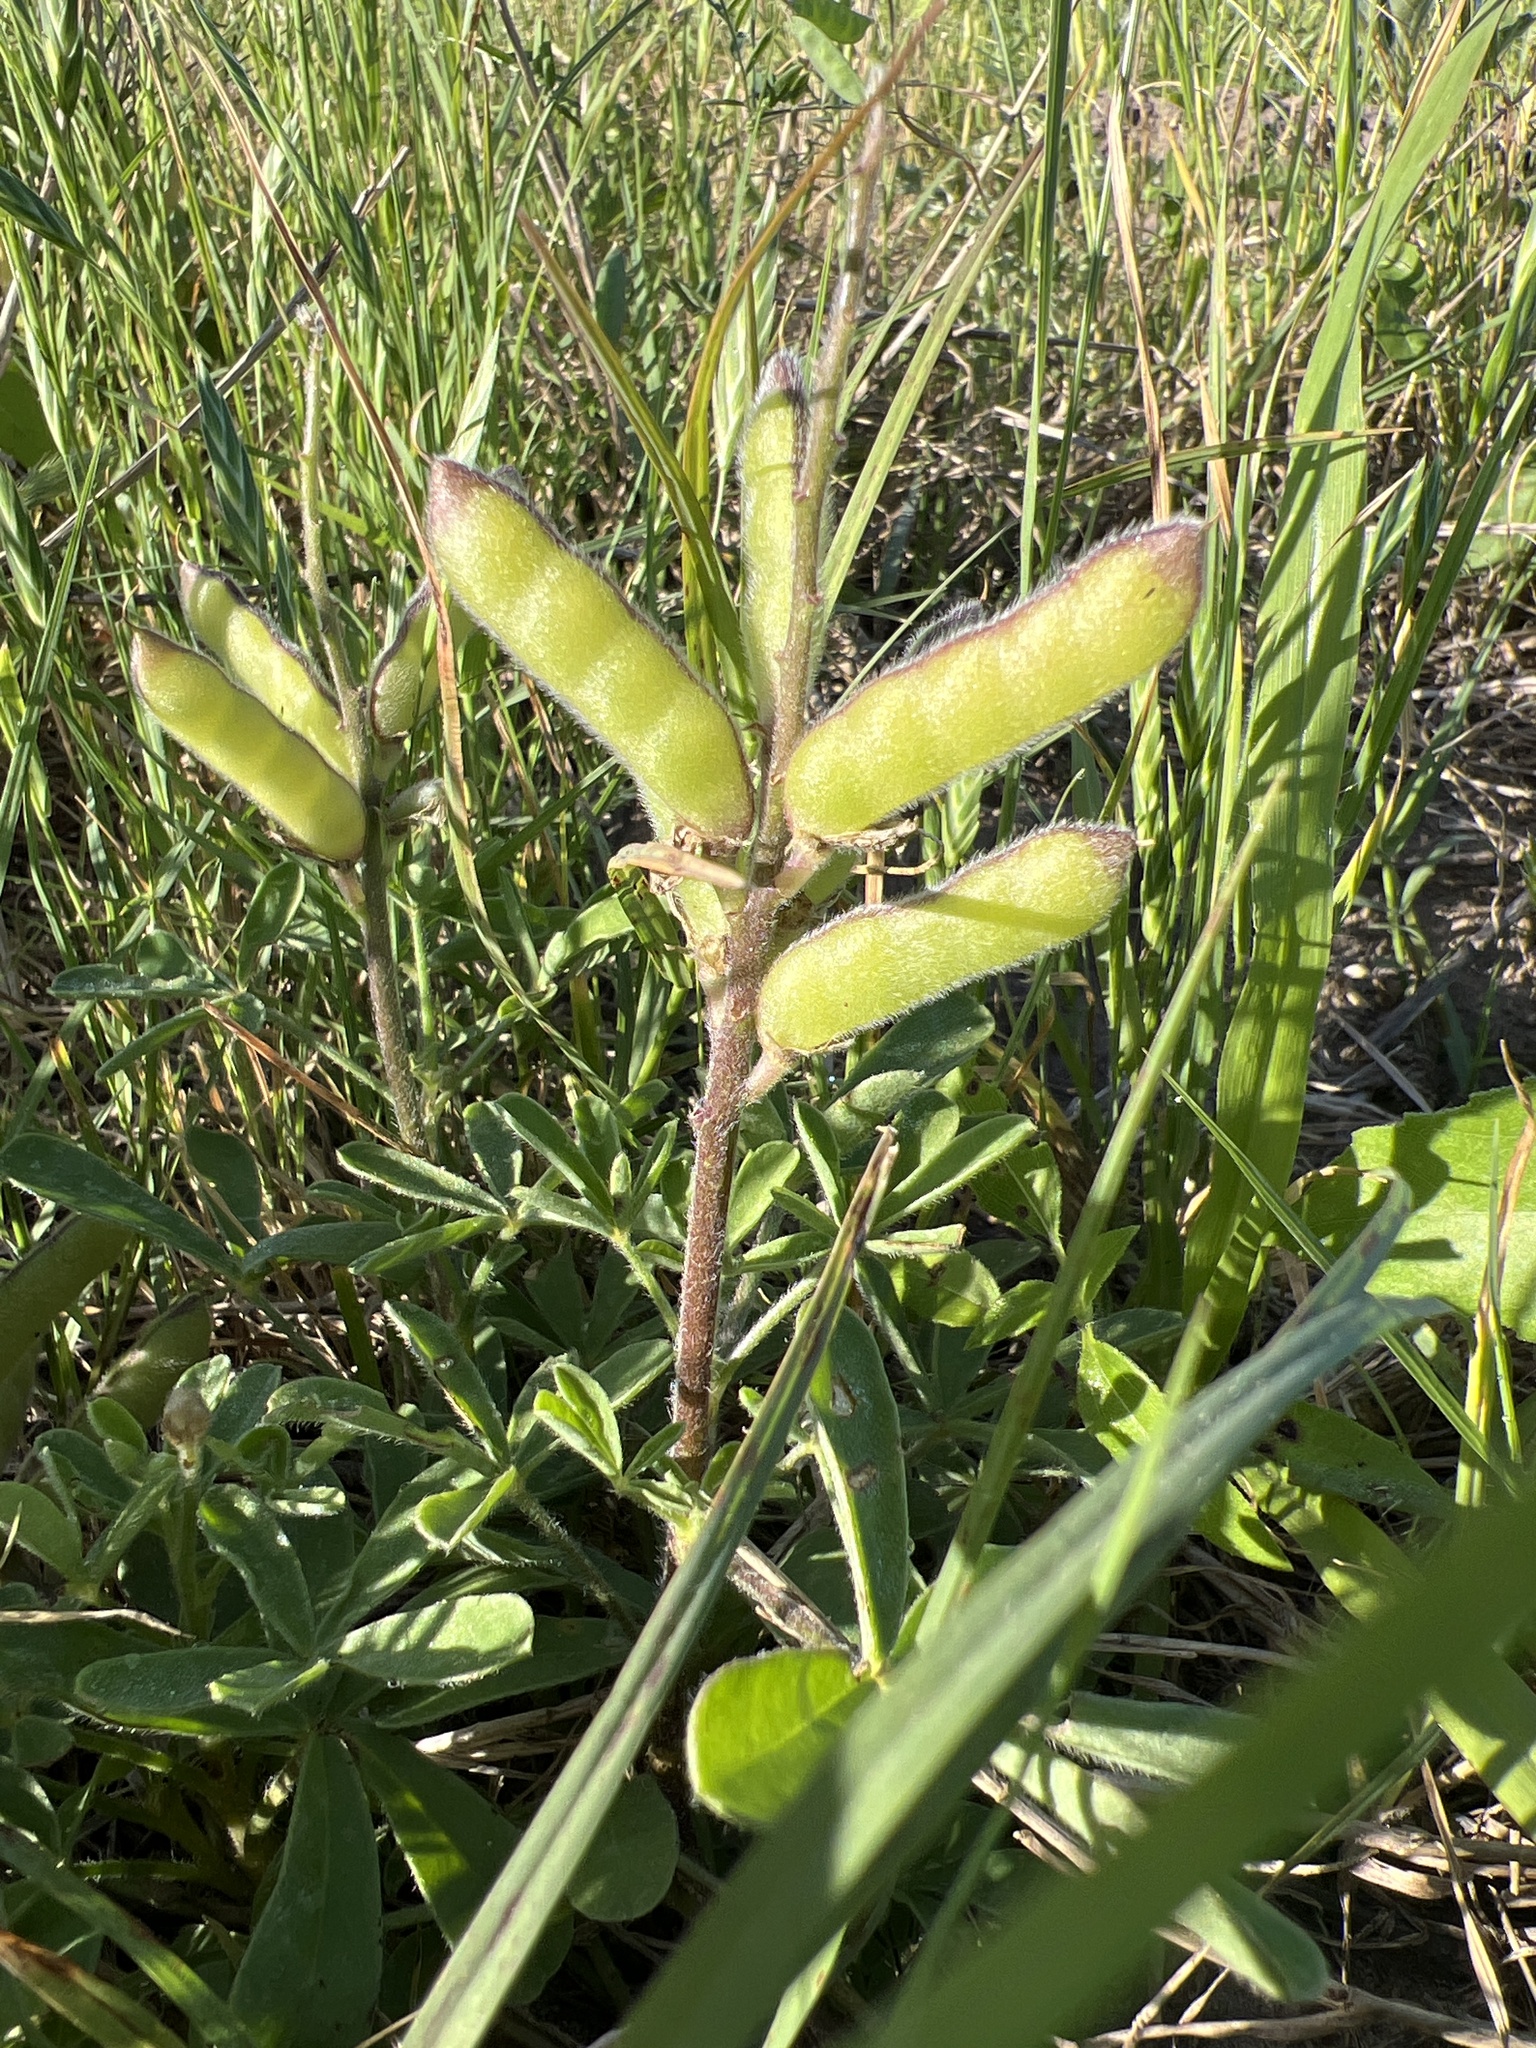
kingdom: Plantae
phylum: Tracheophyta
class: Magnoliopsida
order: Fabales
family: Fabaceae
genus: Lupinus
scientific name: Lupinus subcarnosus
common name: Texas bluebonnet
